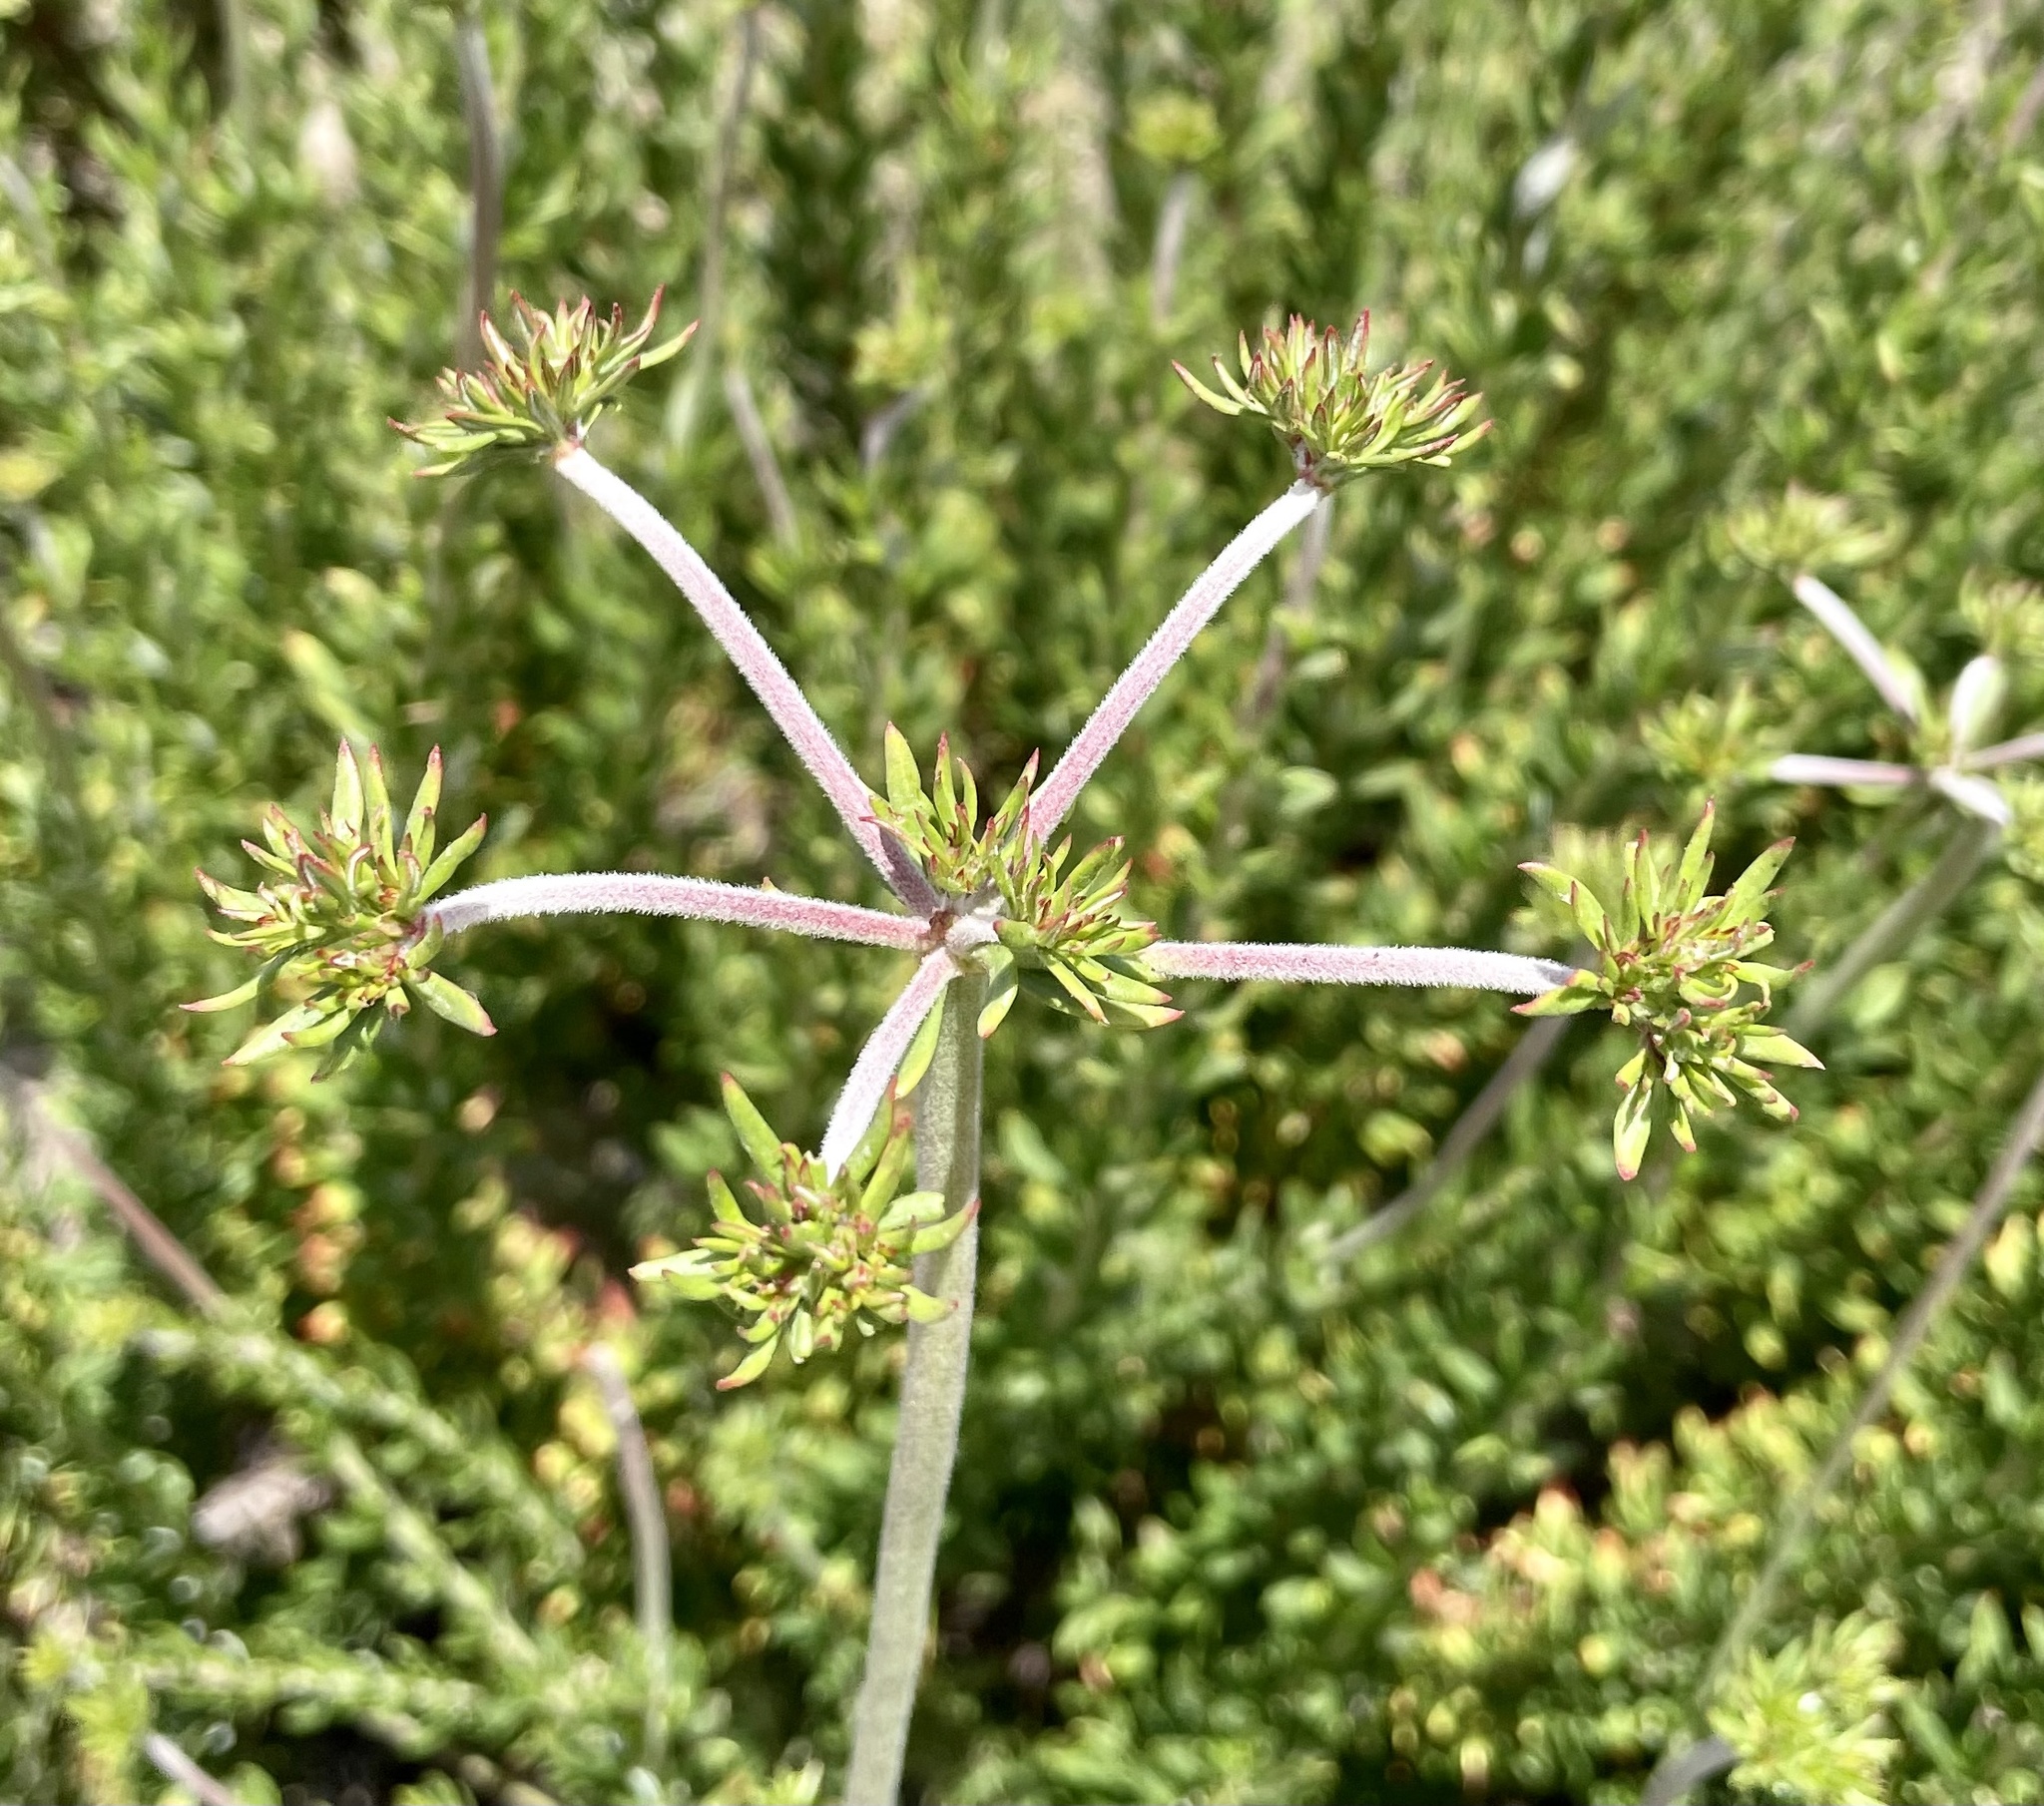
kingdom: Plantae
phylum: Tracheophyta
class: Magnoliopsida
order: Caryophyllales
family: Polygonaceae
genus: Eriogonum
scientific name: Eriogonum fasciculatum
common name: California wild buckwheat
